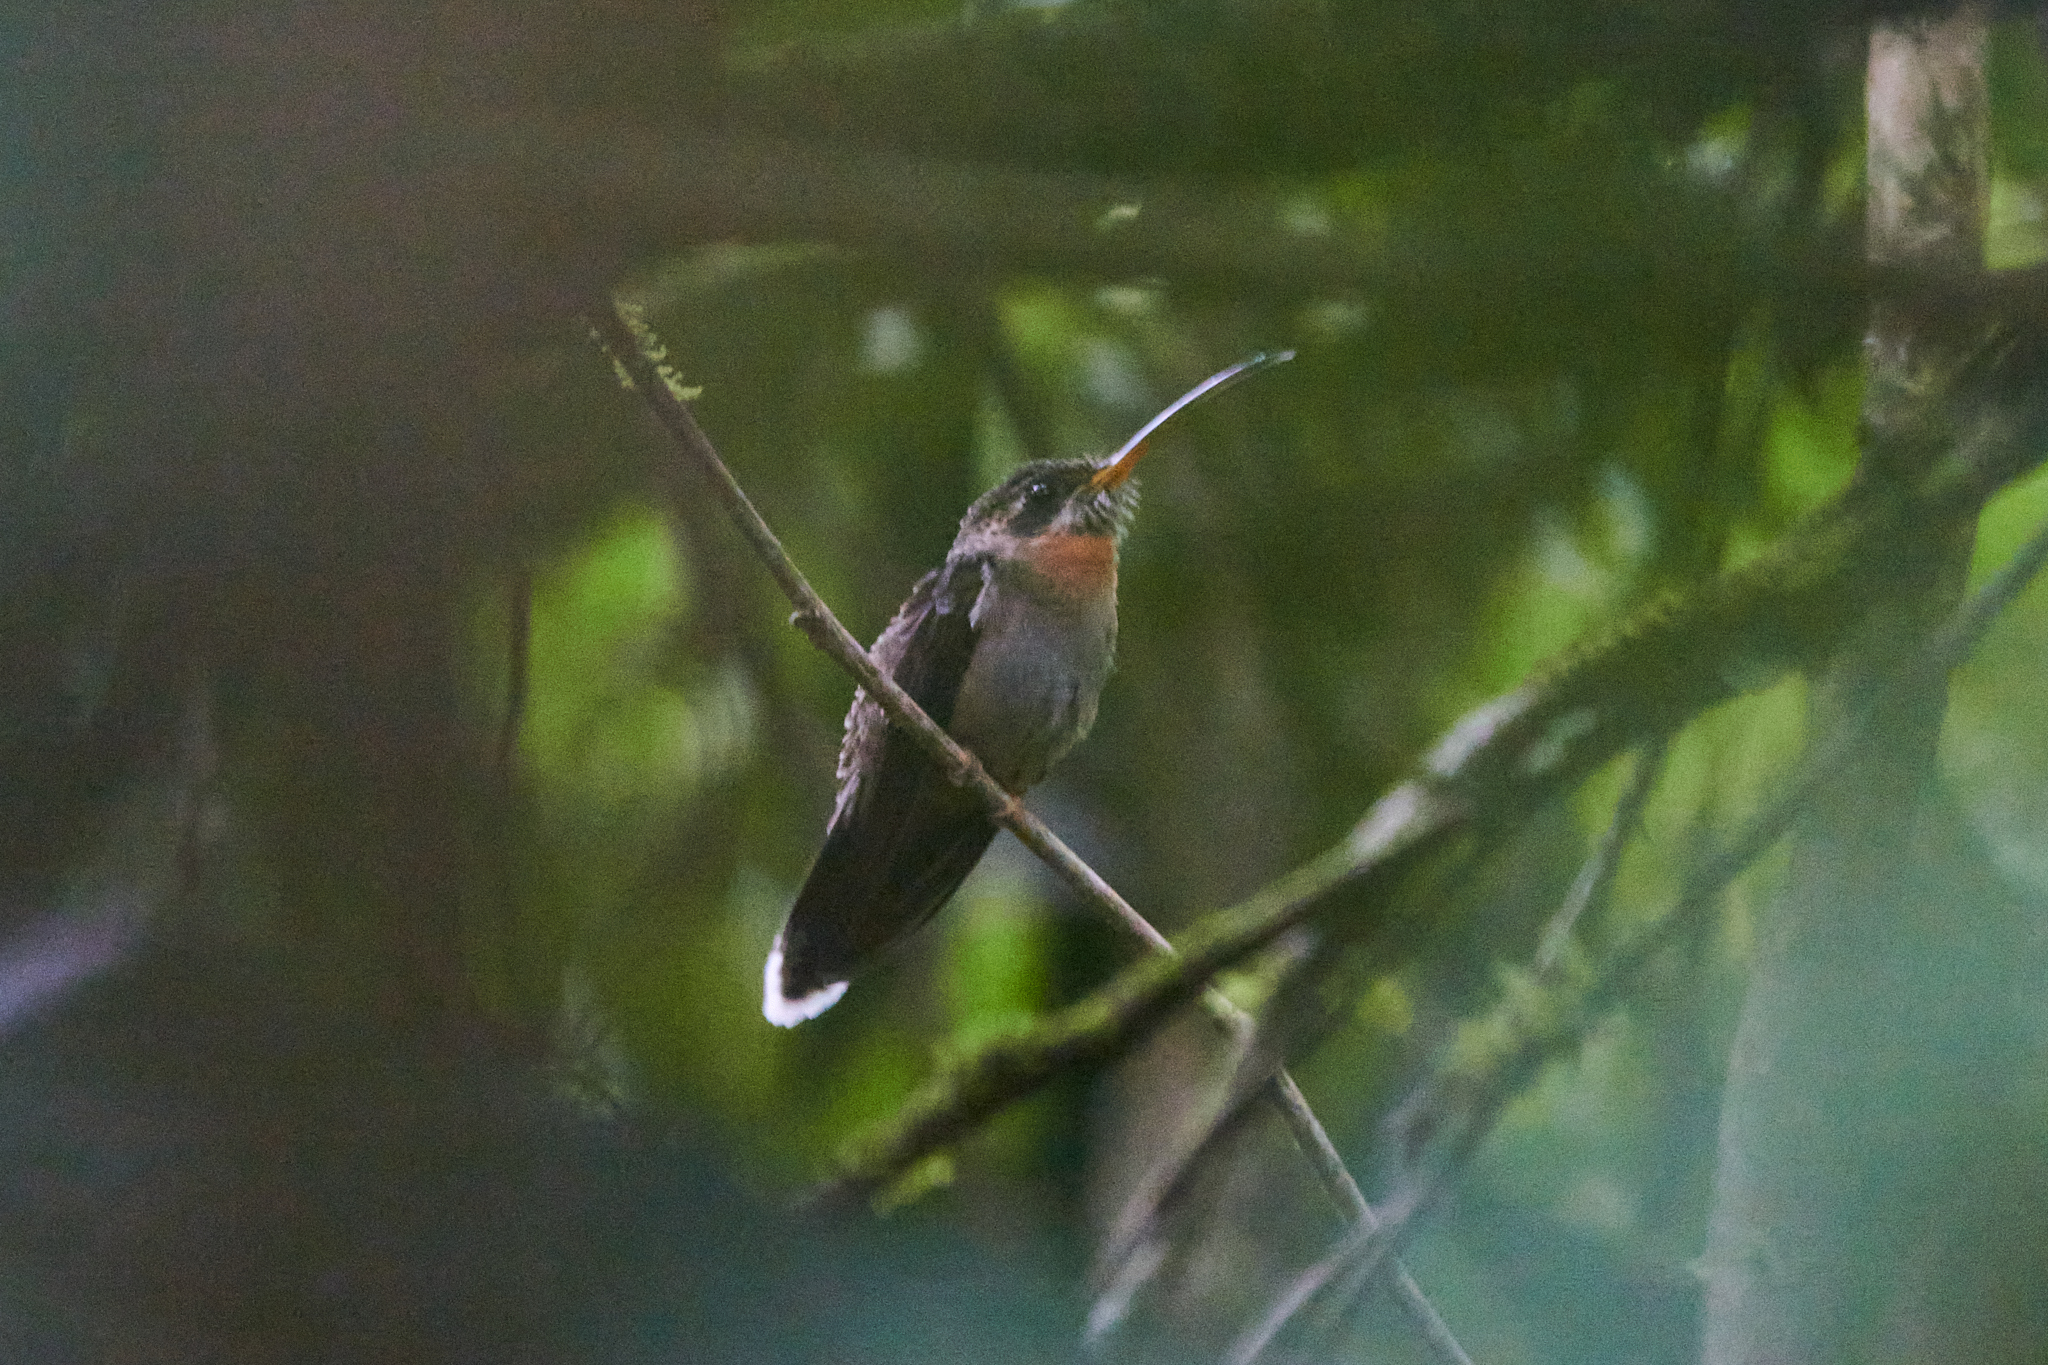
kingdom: Animalia
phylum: Chordata
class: Aves
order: Apodiformes
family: Trochilidae
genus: Threnetes
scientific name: Threnetes ruckeri
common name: Band-tailed barbthroat
